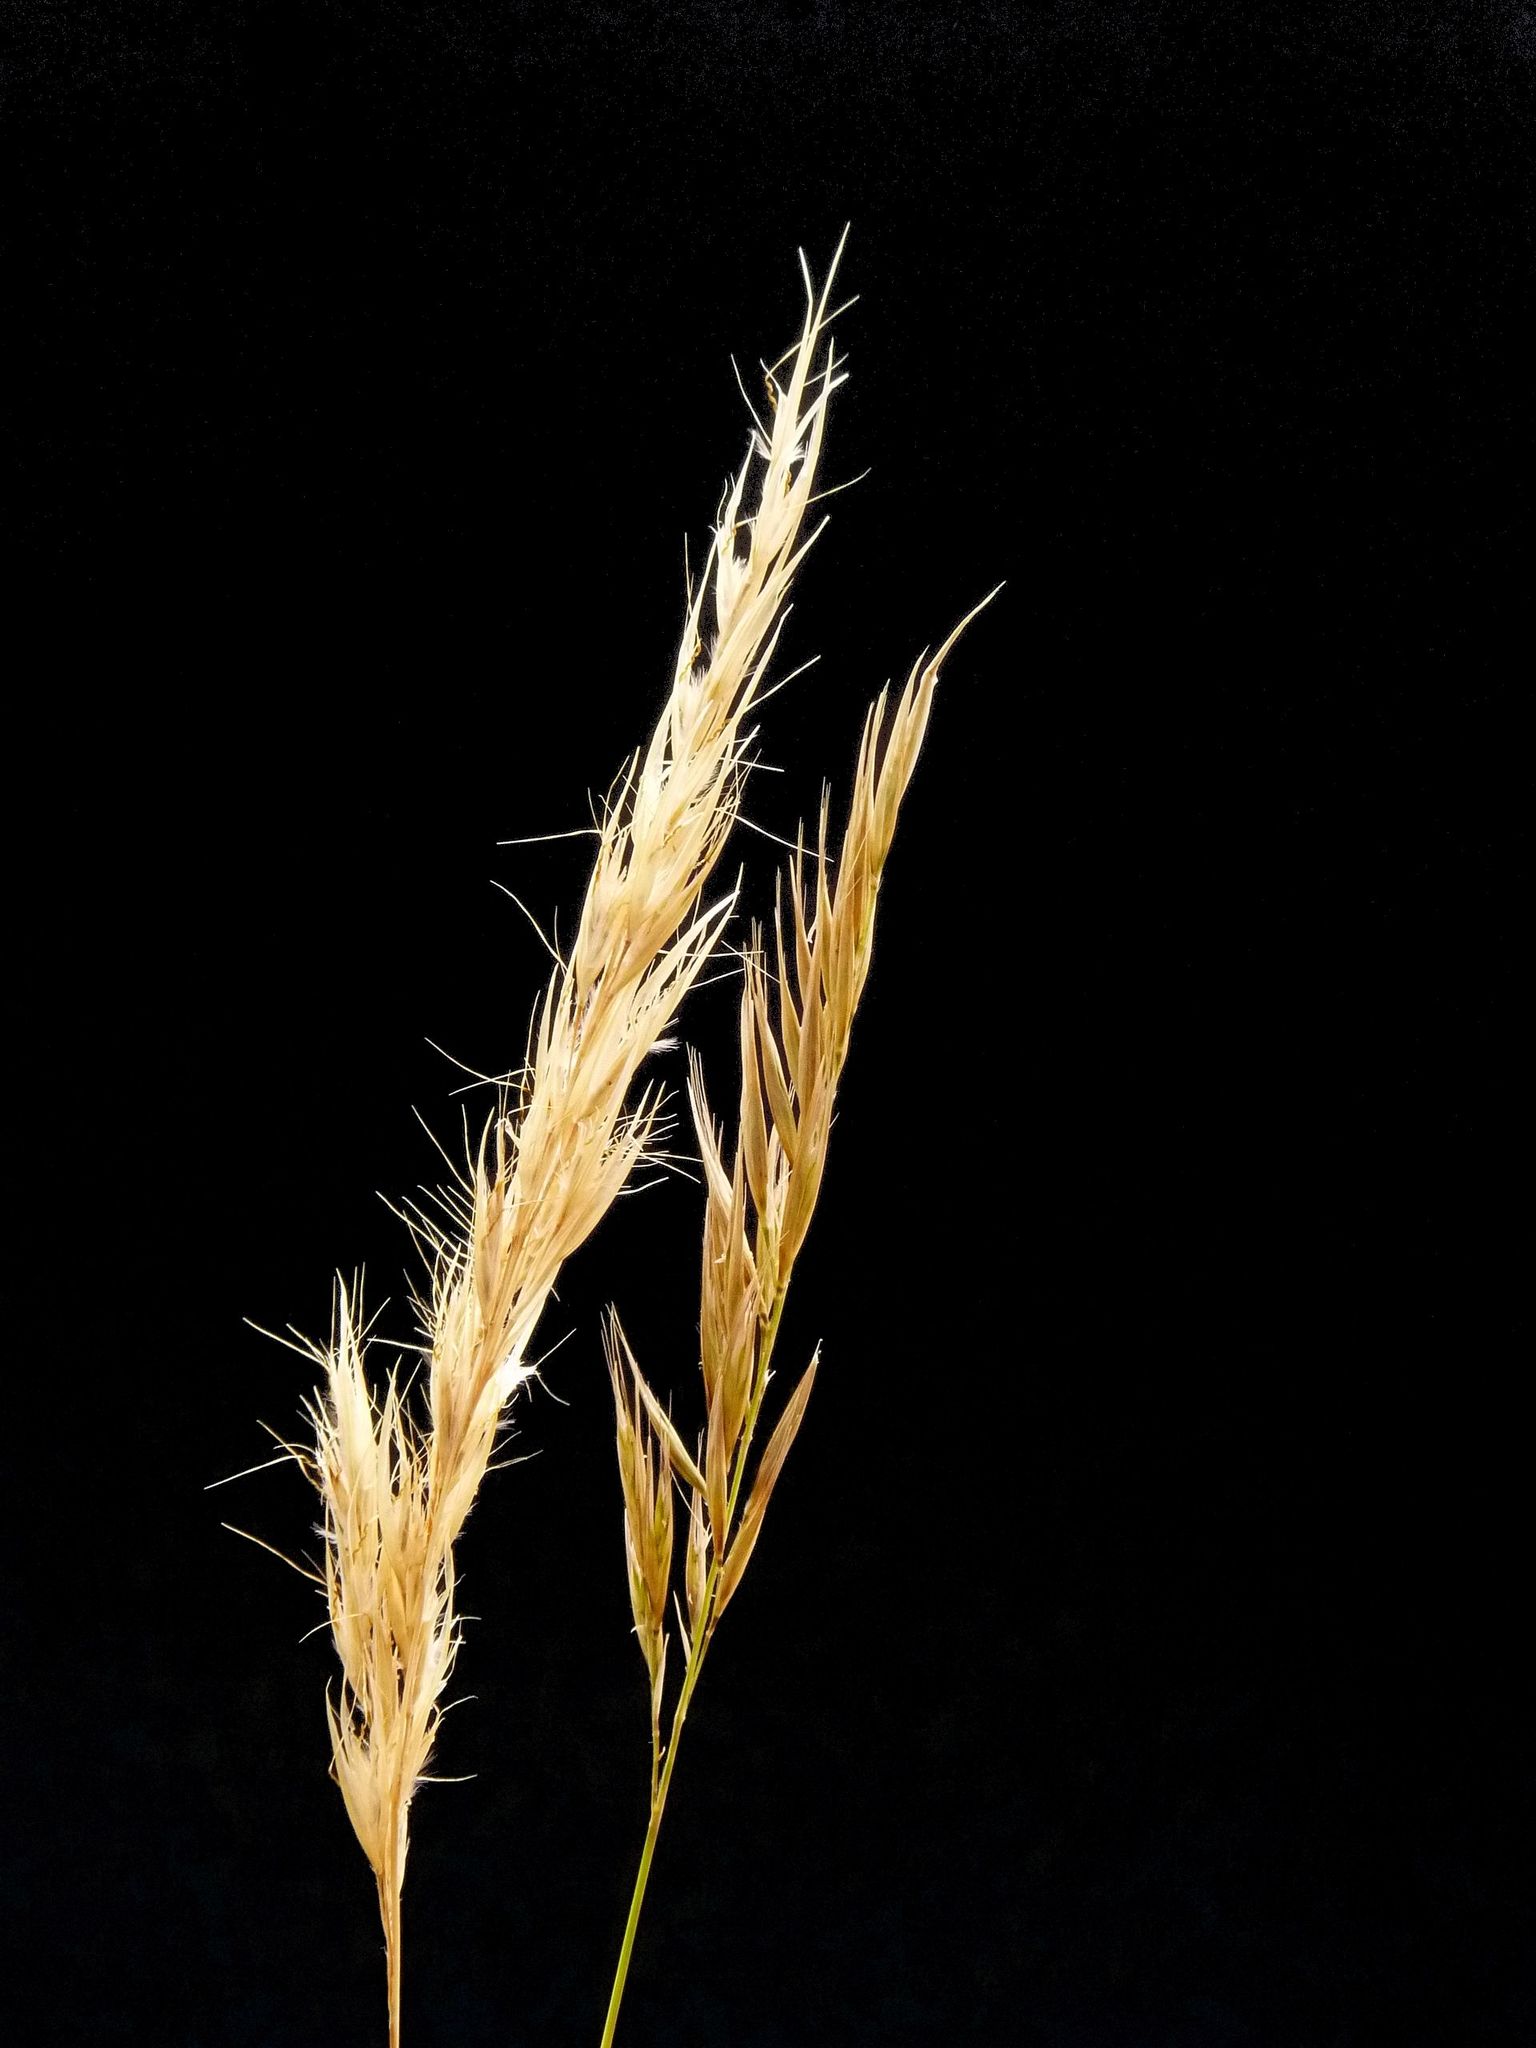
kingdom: Plantae
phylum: Tracheophyta
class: Liliopsida
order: Poales
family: Poaceae
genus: Tenaxia
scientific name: Tenaxia stricta
